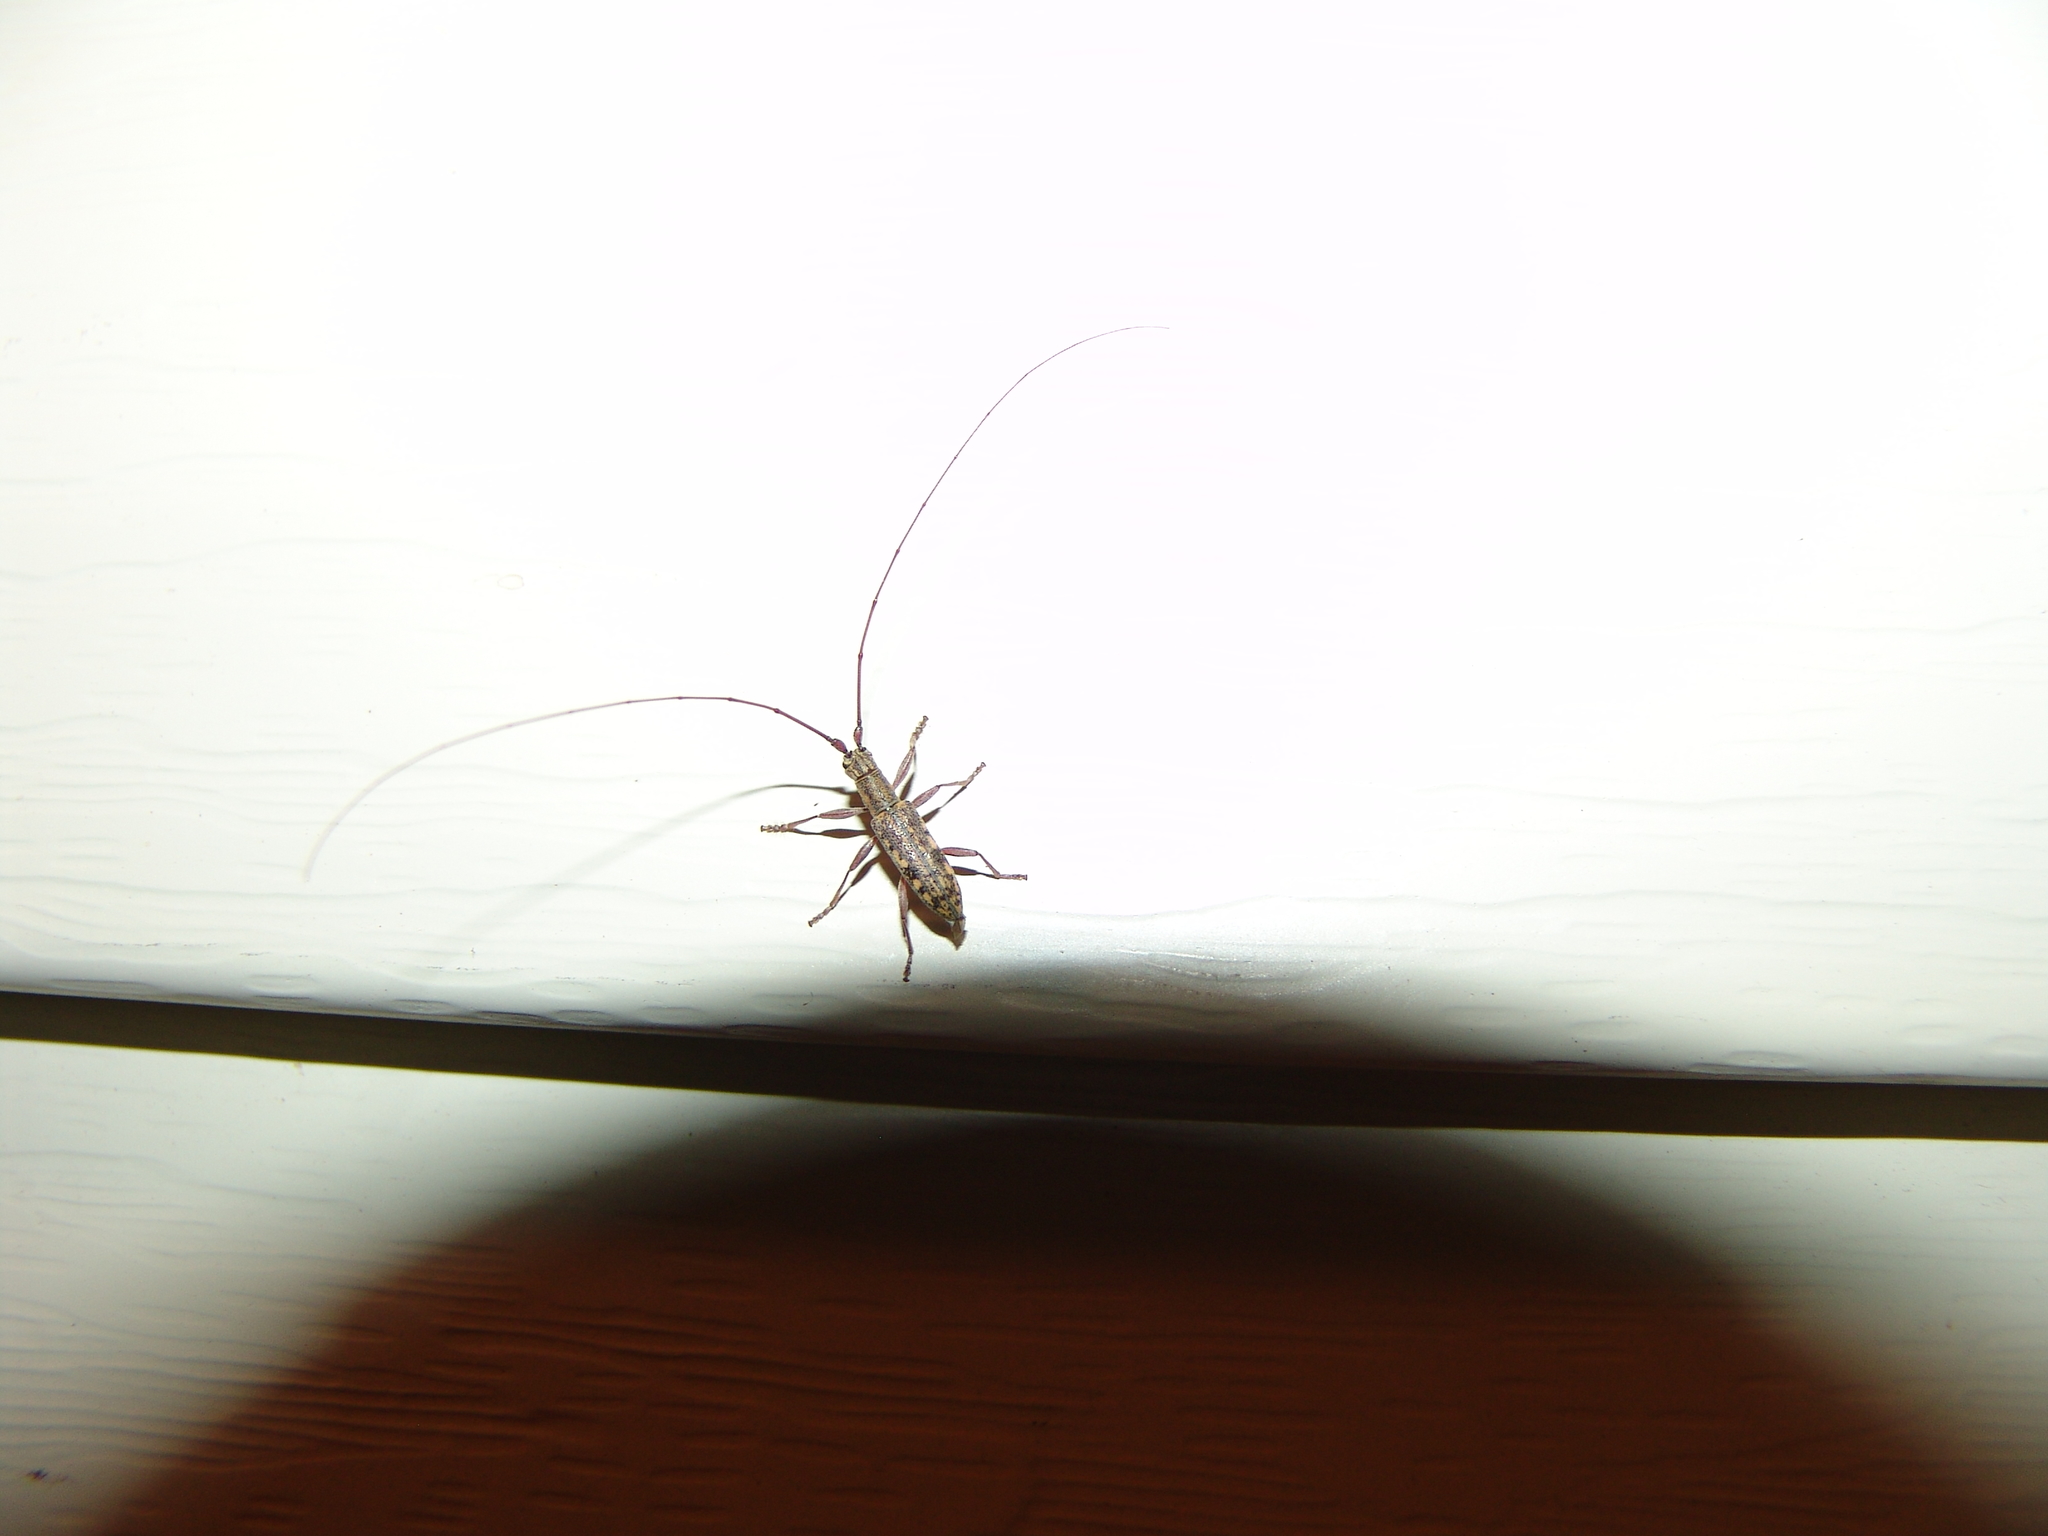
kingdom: Animalia
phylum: Arthropoda
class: Insecta
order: Coleoptera
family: Cerambycidae
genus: Dorcaschema
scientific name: Dorcaschema alternatum
